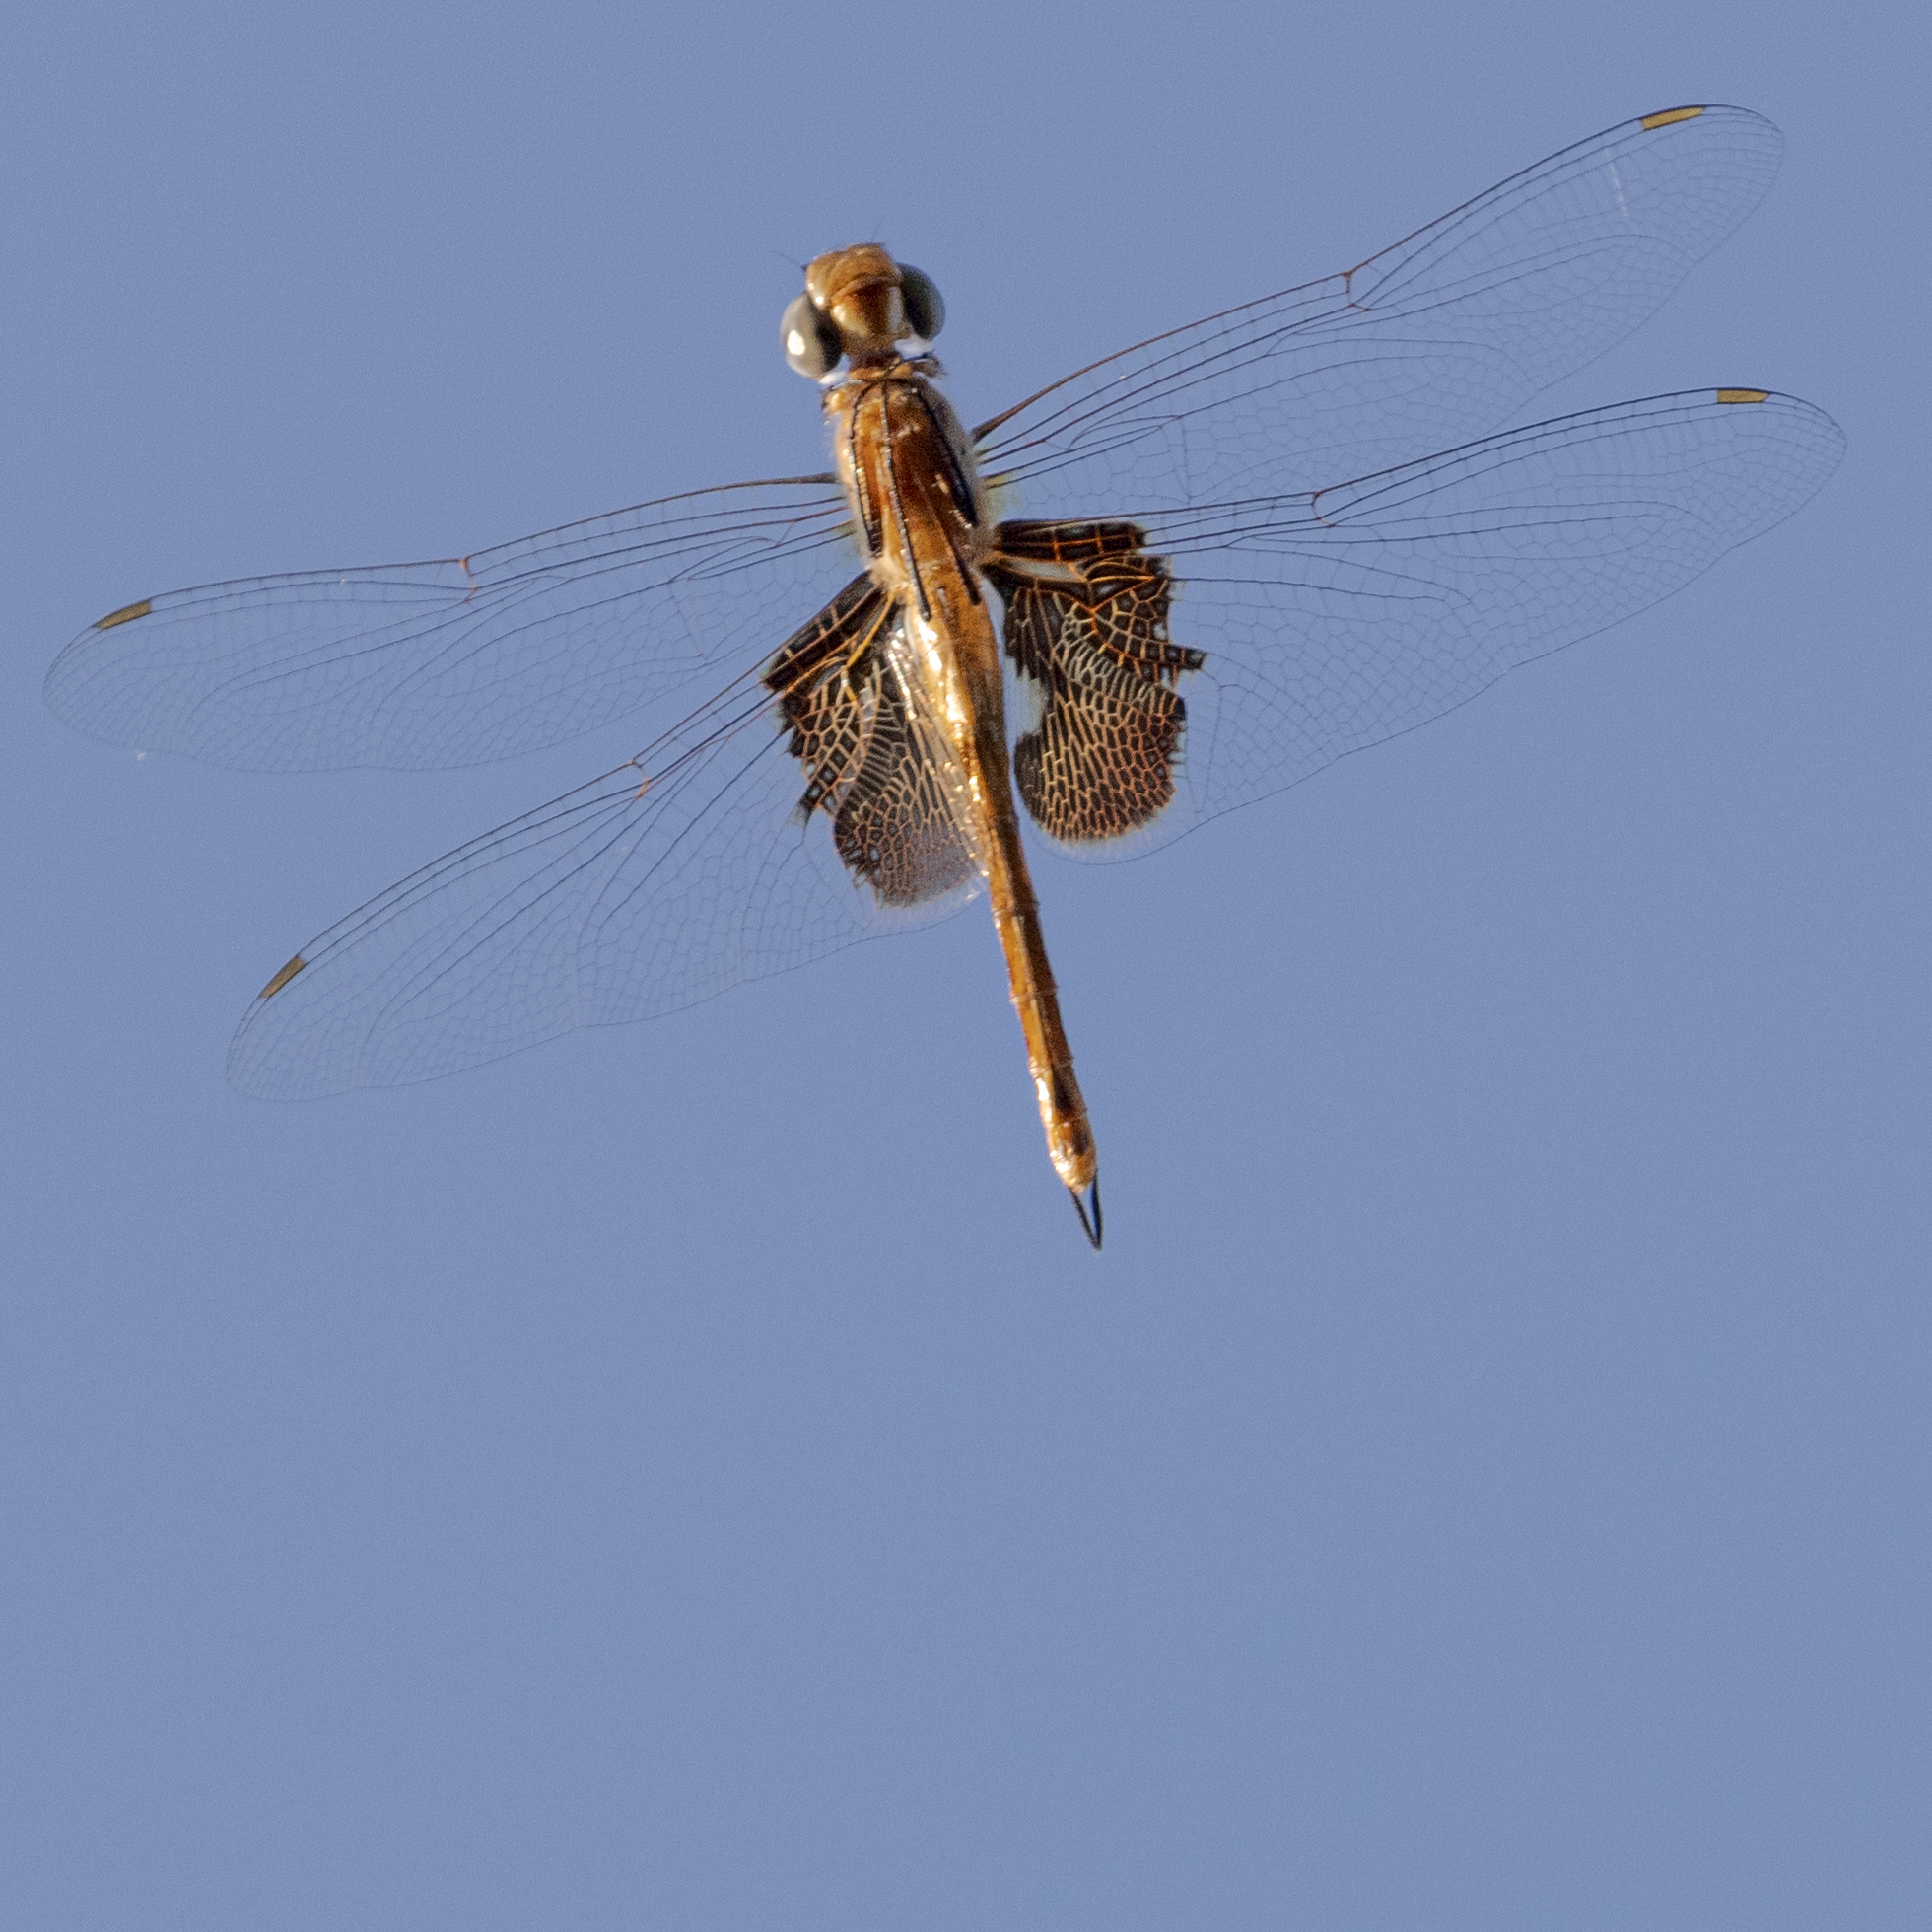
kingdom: Animalia
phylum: Arthropoda
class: Insecta
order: Odonata
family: Libellulidae
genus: Tramea
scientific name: Tramea onusta
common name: Red saddlebags
